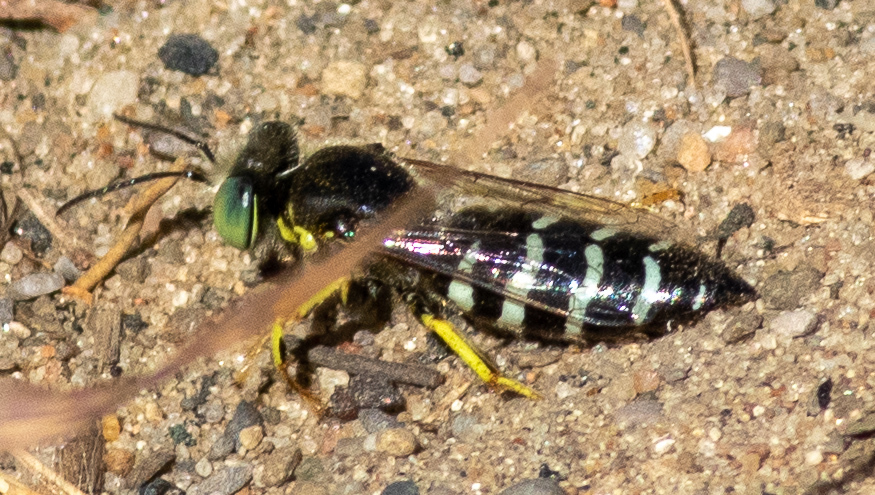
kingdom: Animalia
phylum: Arthropoda
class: Insecta
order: Hymenoptera
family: Crabronidae
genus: Bembix
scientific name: Bembix americana
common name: American sand wasp
